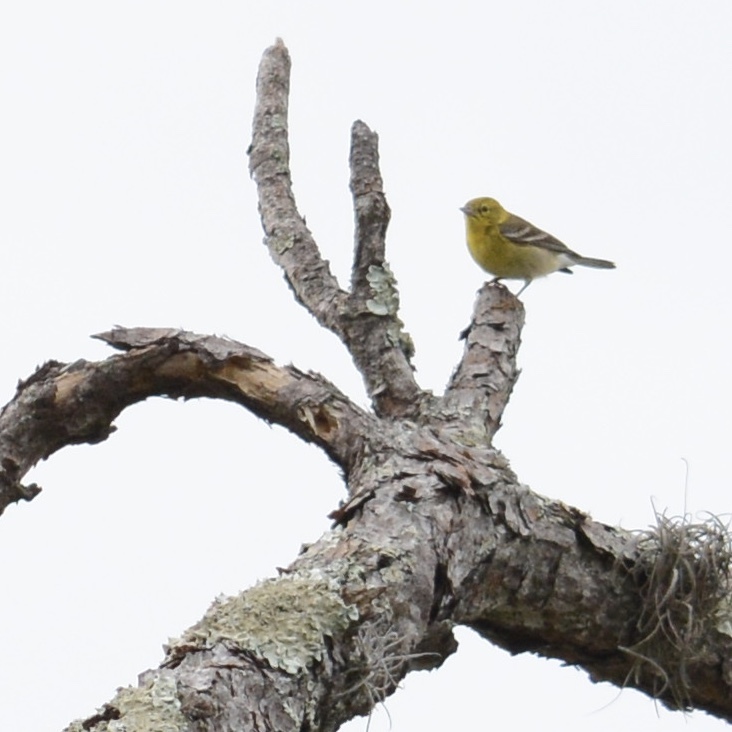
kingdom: Animalia
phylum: Chordata
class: Aves
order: Passeriformes
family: Parulidae
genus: Setophaga
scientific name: Setophaga pinus
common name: Pine warbler
